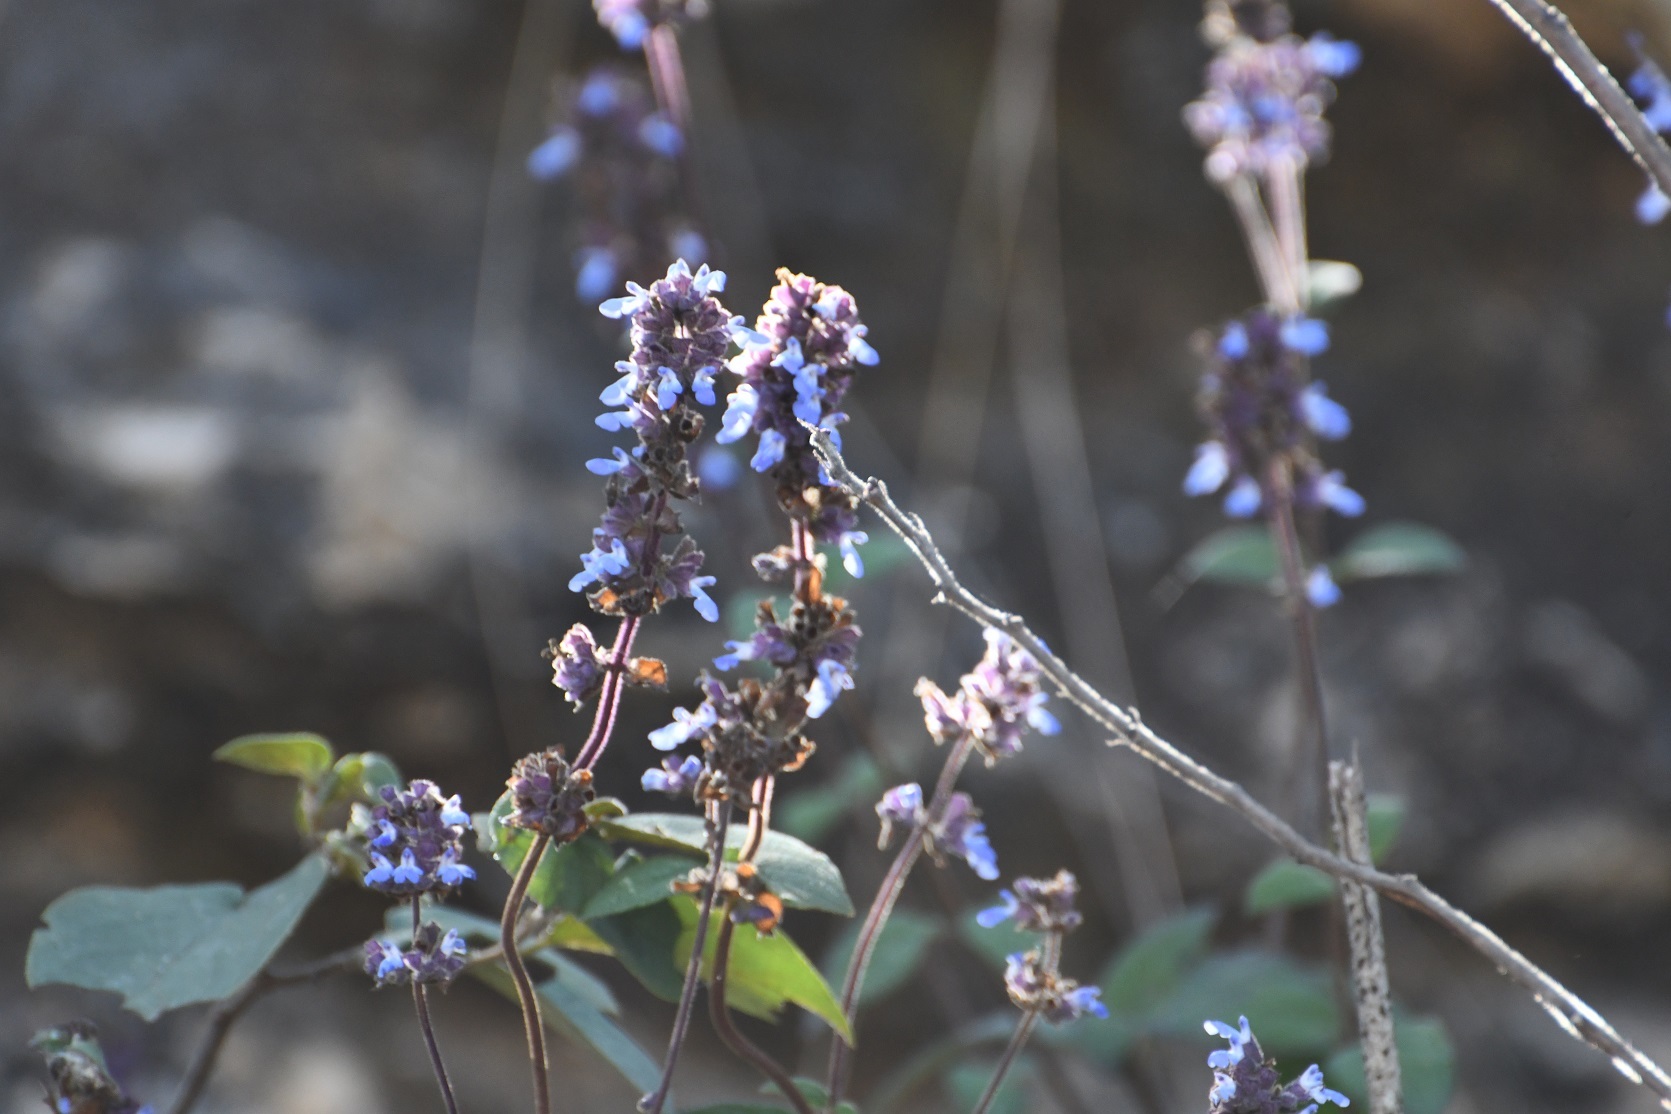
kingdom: Plantae
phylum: Tracheophyta
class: Magnoliopsida
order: Lamiales
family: Lamiaceae
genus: Salvia
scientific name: Salvia mocinoi
